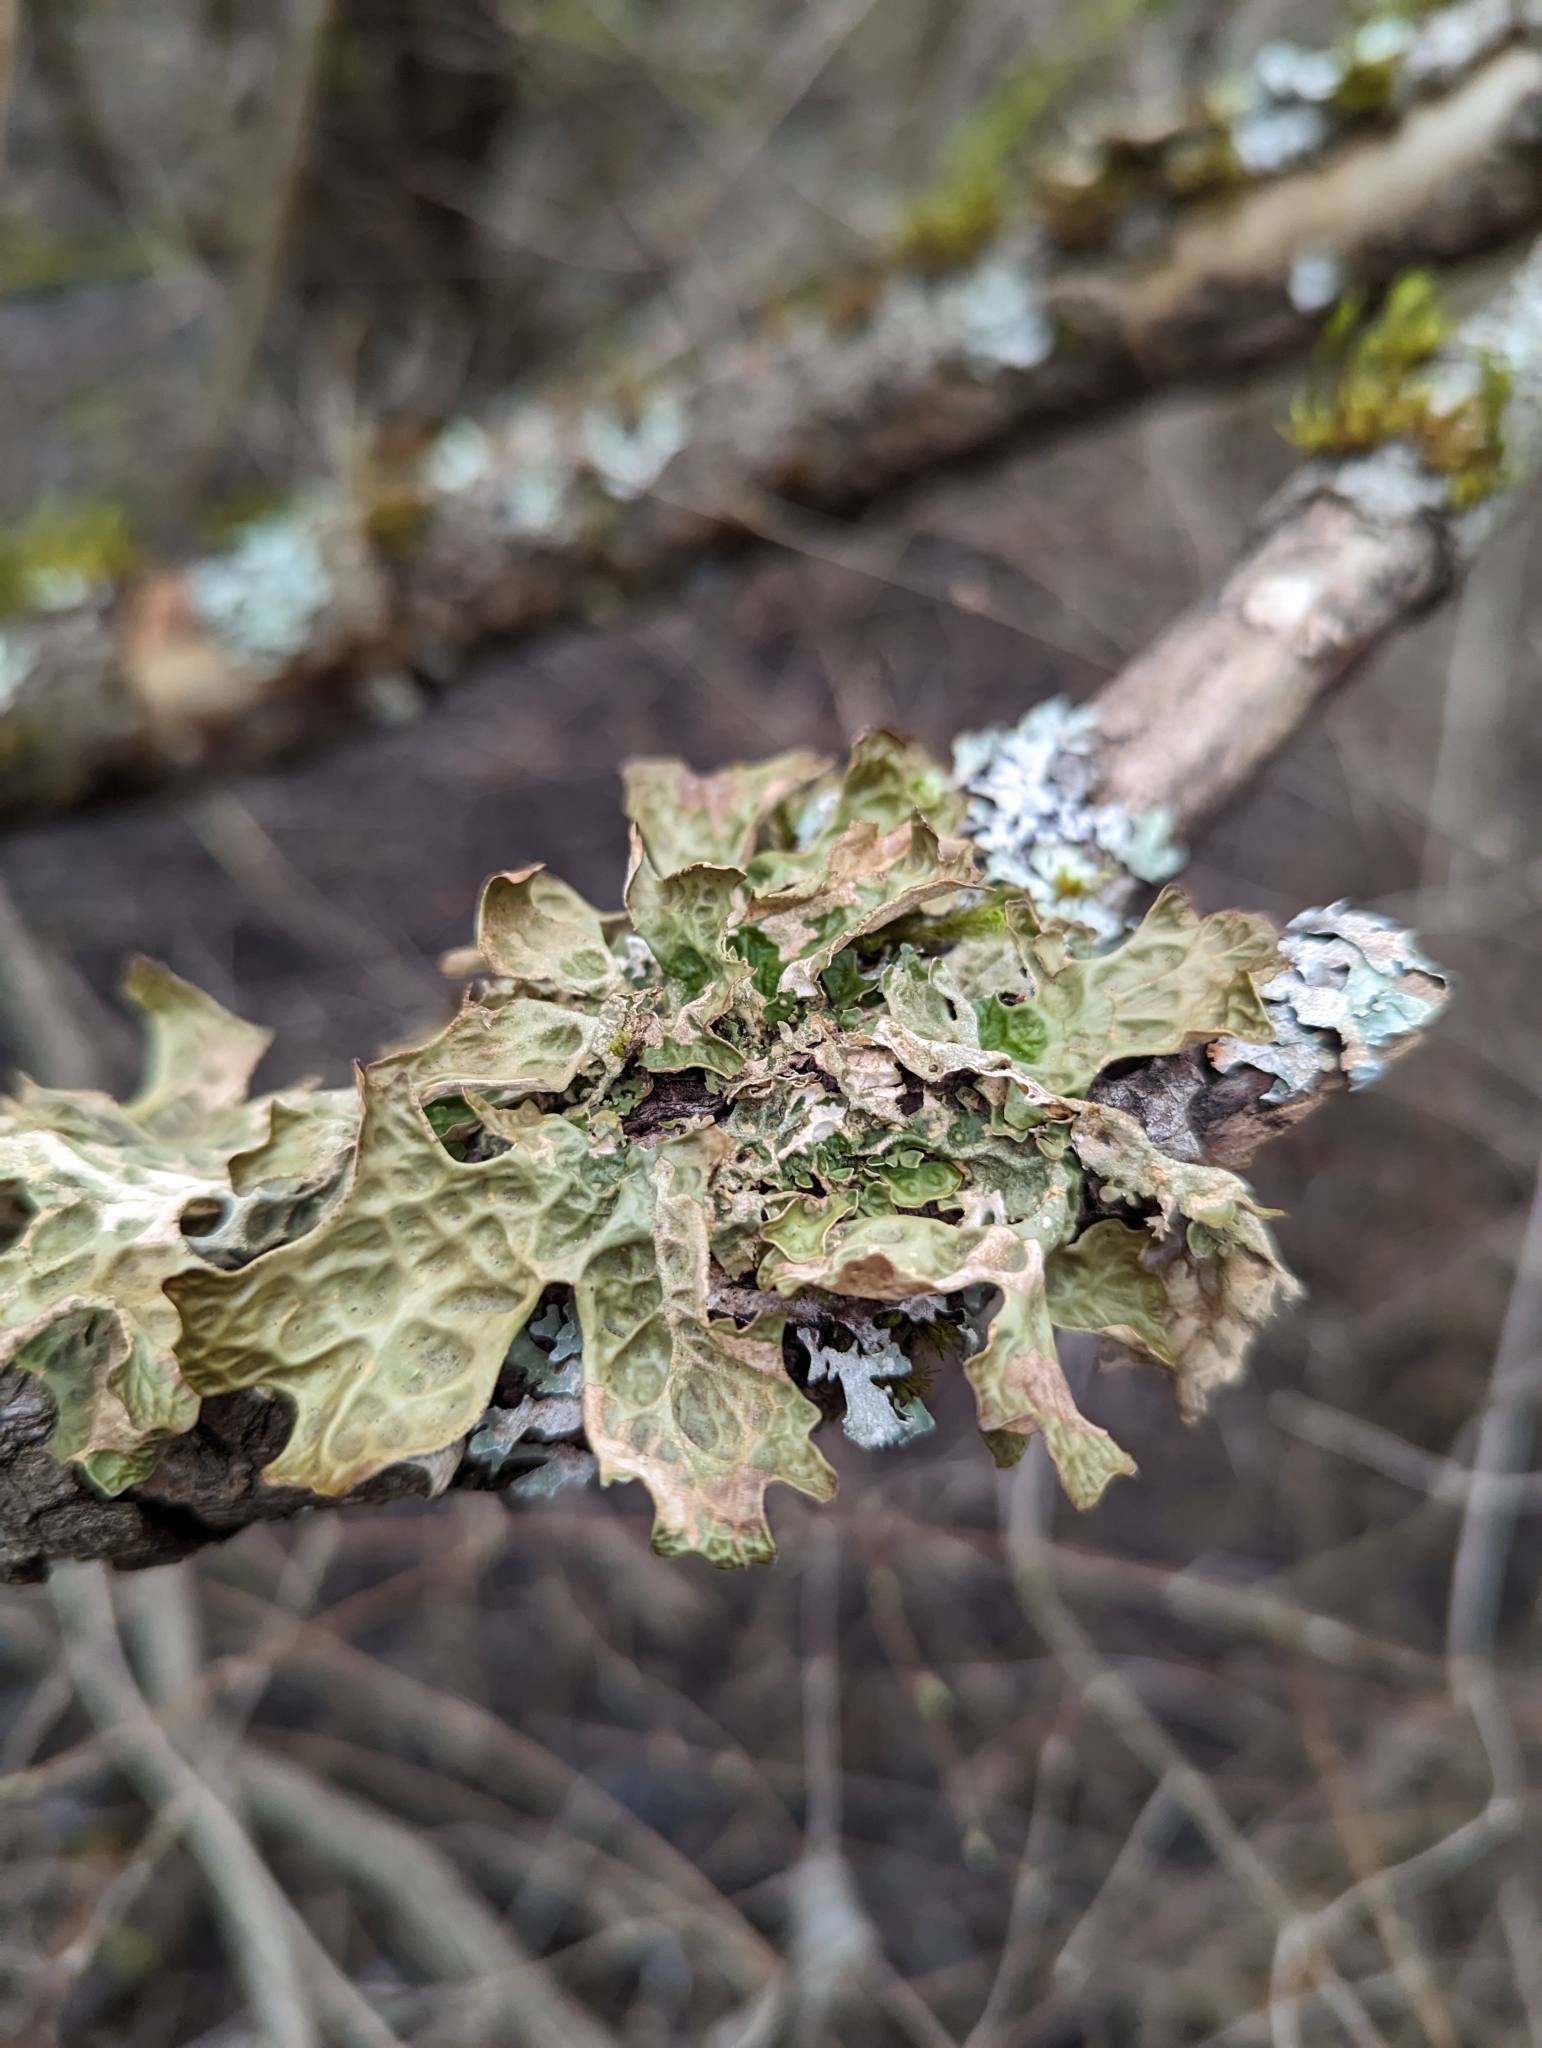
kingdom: Fungi
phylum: Ascomycota
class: Lecanoromycetes
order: Peltigerales
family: Lobariaceae
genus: Lobaria
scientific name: Lobaria pulmonaria
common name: Lungwort
